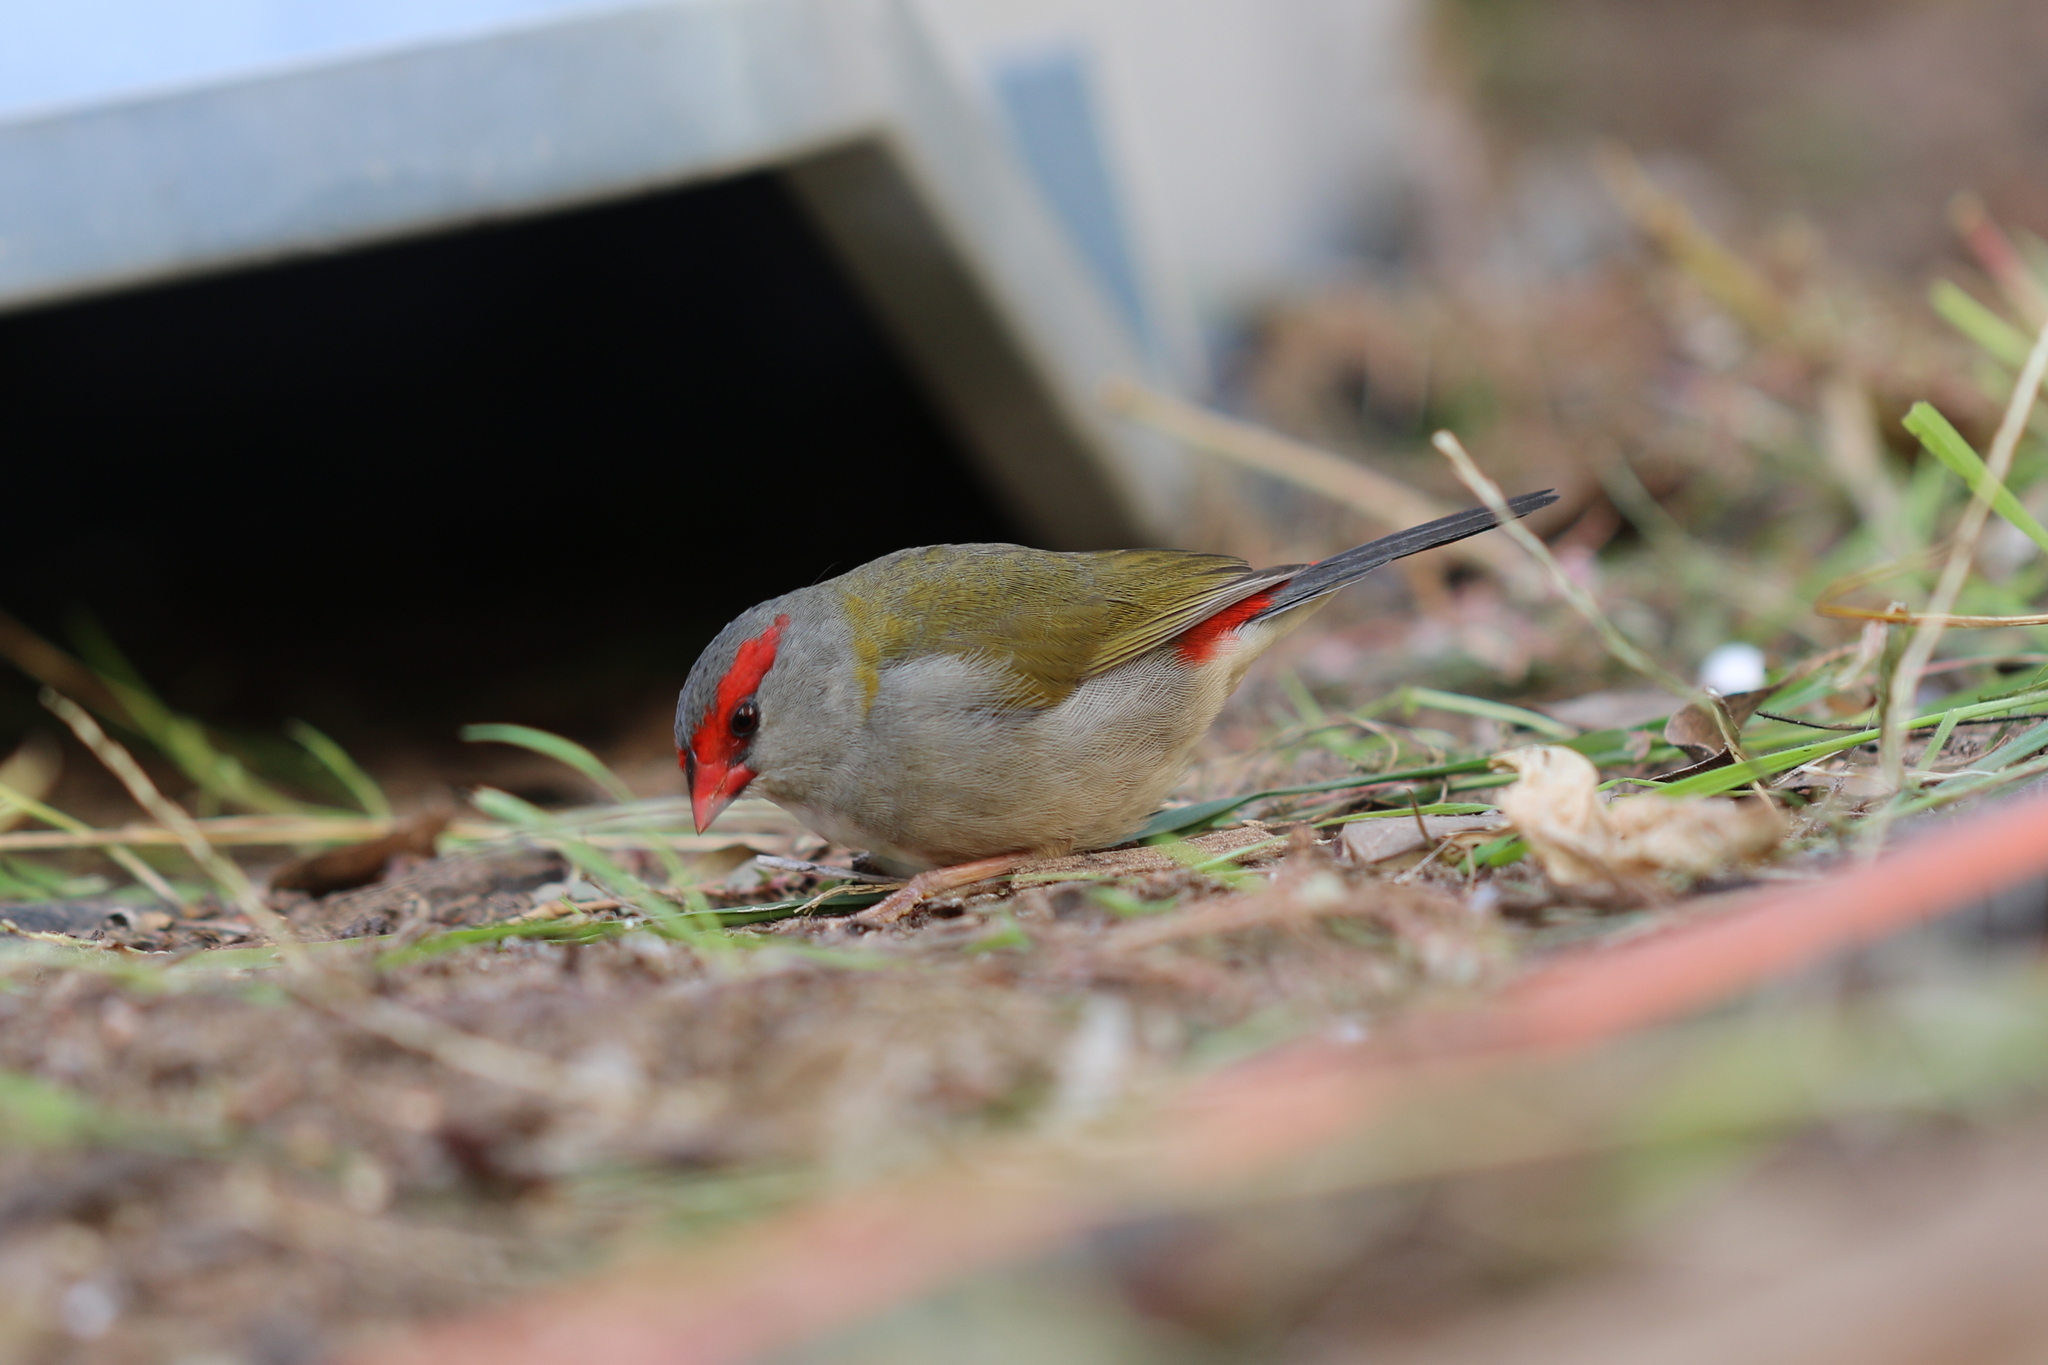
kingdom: Animalia
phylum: Chordata
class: Aves
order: Passeriformes
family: Estrildidae
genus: Neochmia
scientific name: Neochmia temporalis
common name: Red-browed finch
